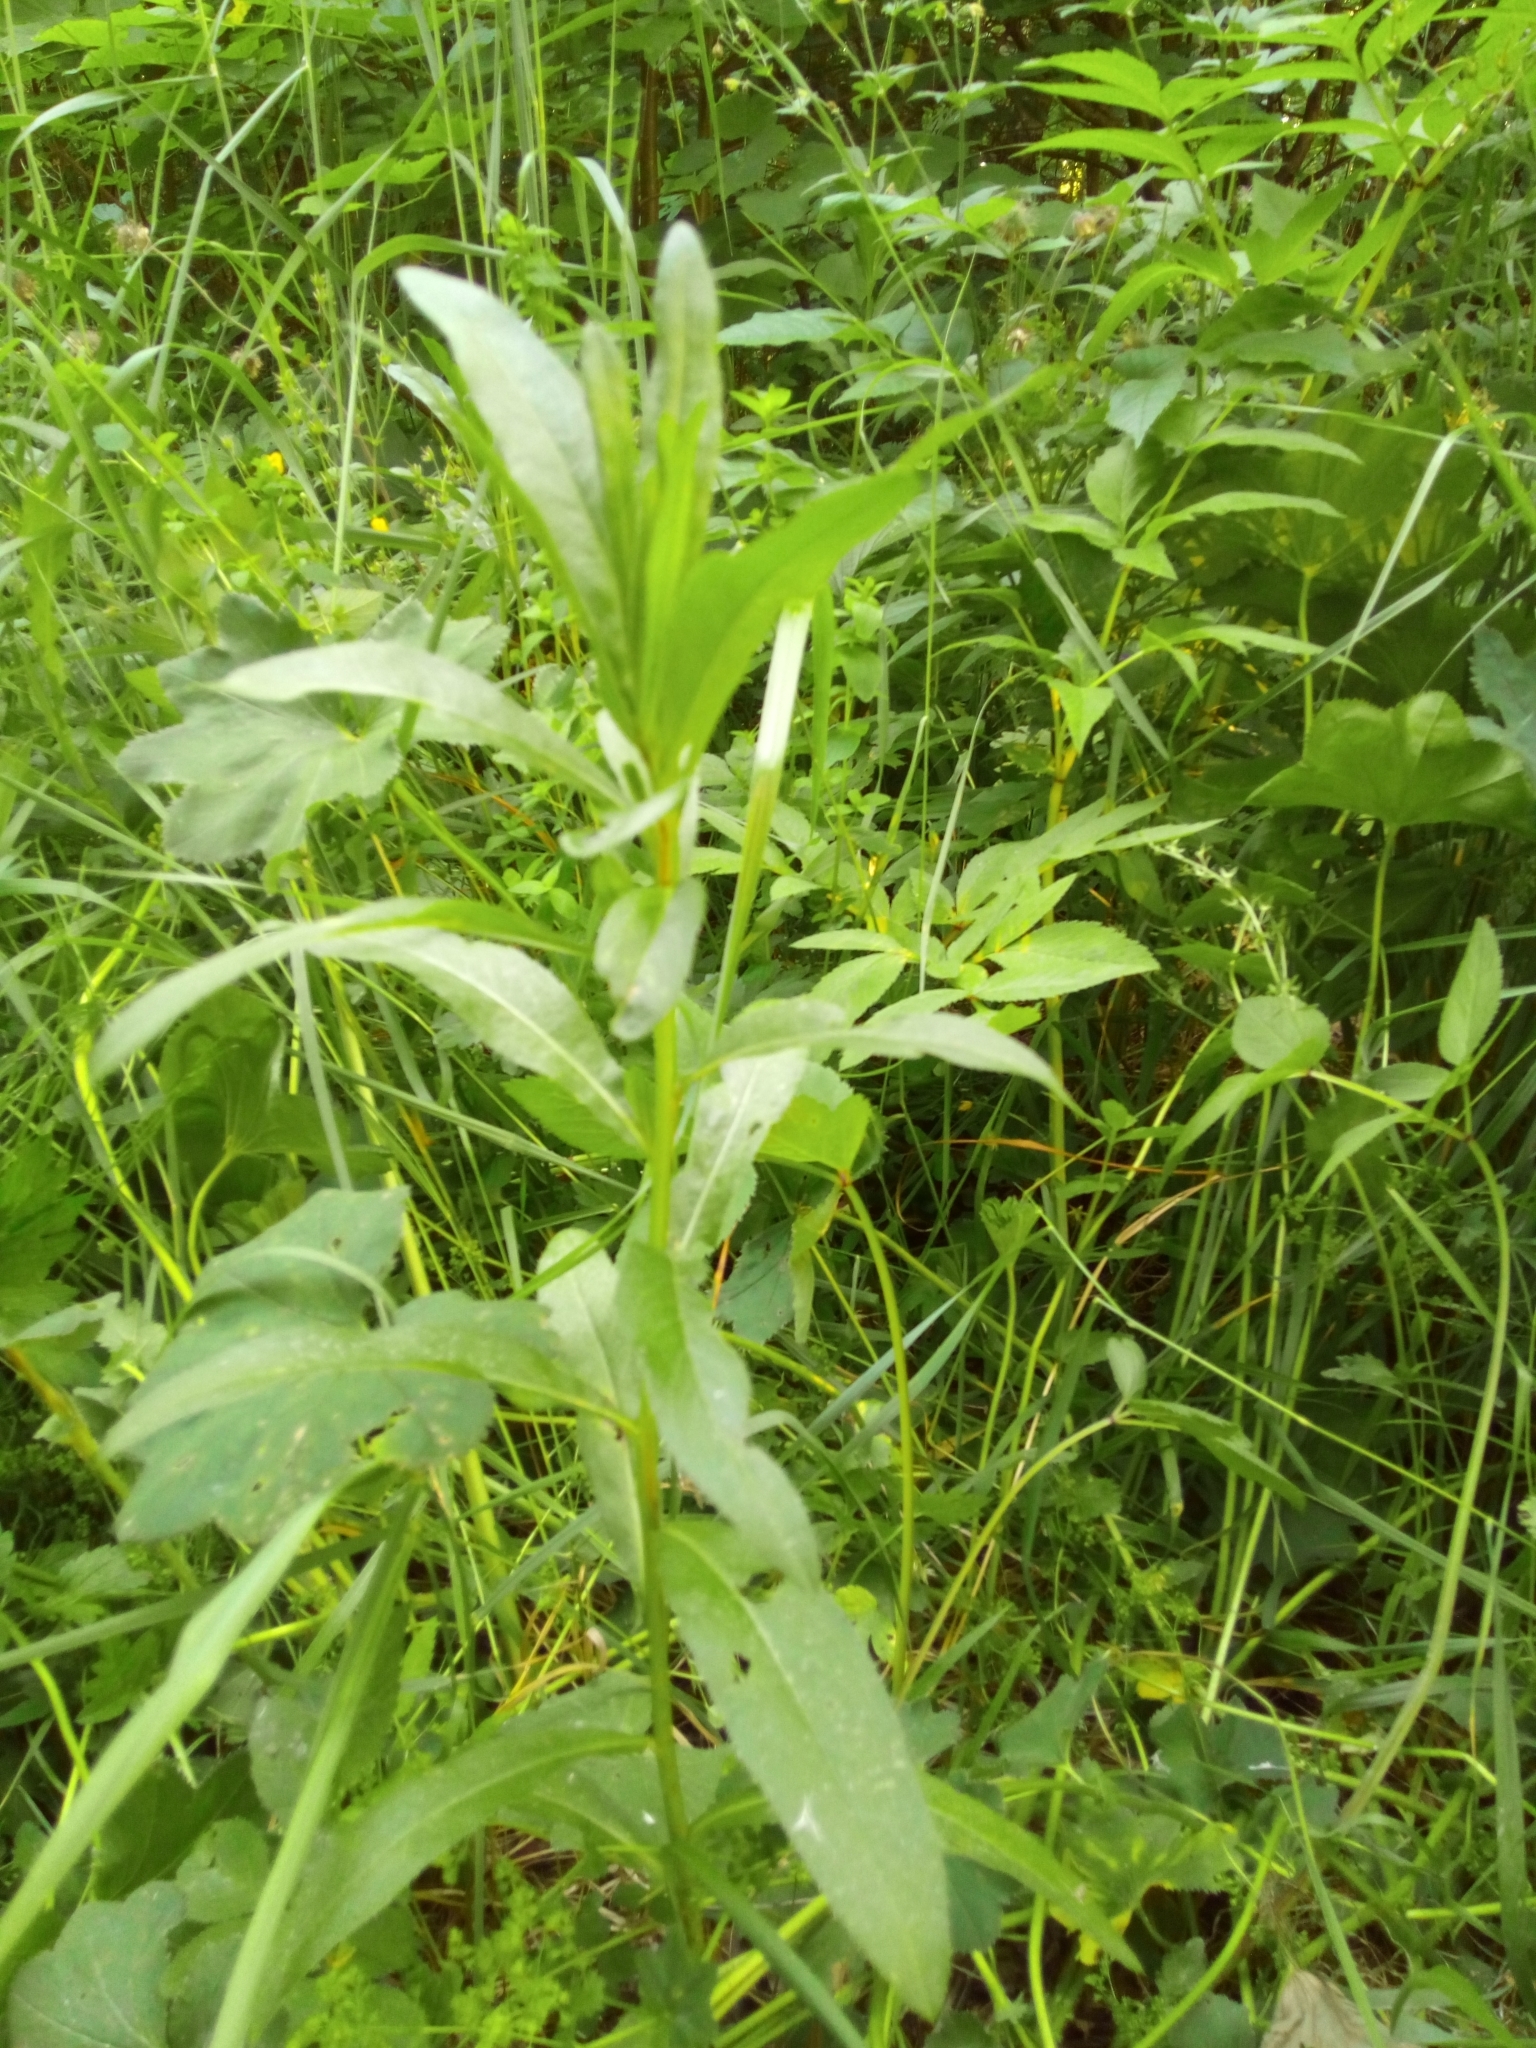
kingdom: Plantae
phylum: Tracheophyta
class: Magnoliopsida
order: Asterales
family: Asteraceae
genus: Cirsium
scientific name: Cirsium arvense
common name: Creeping thistle
